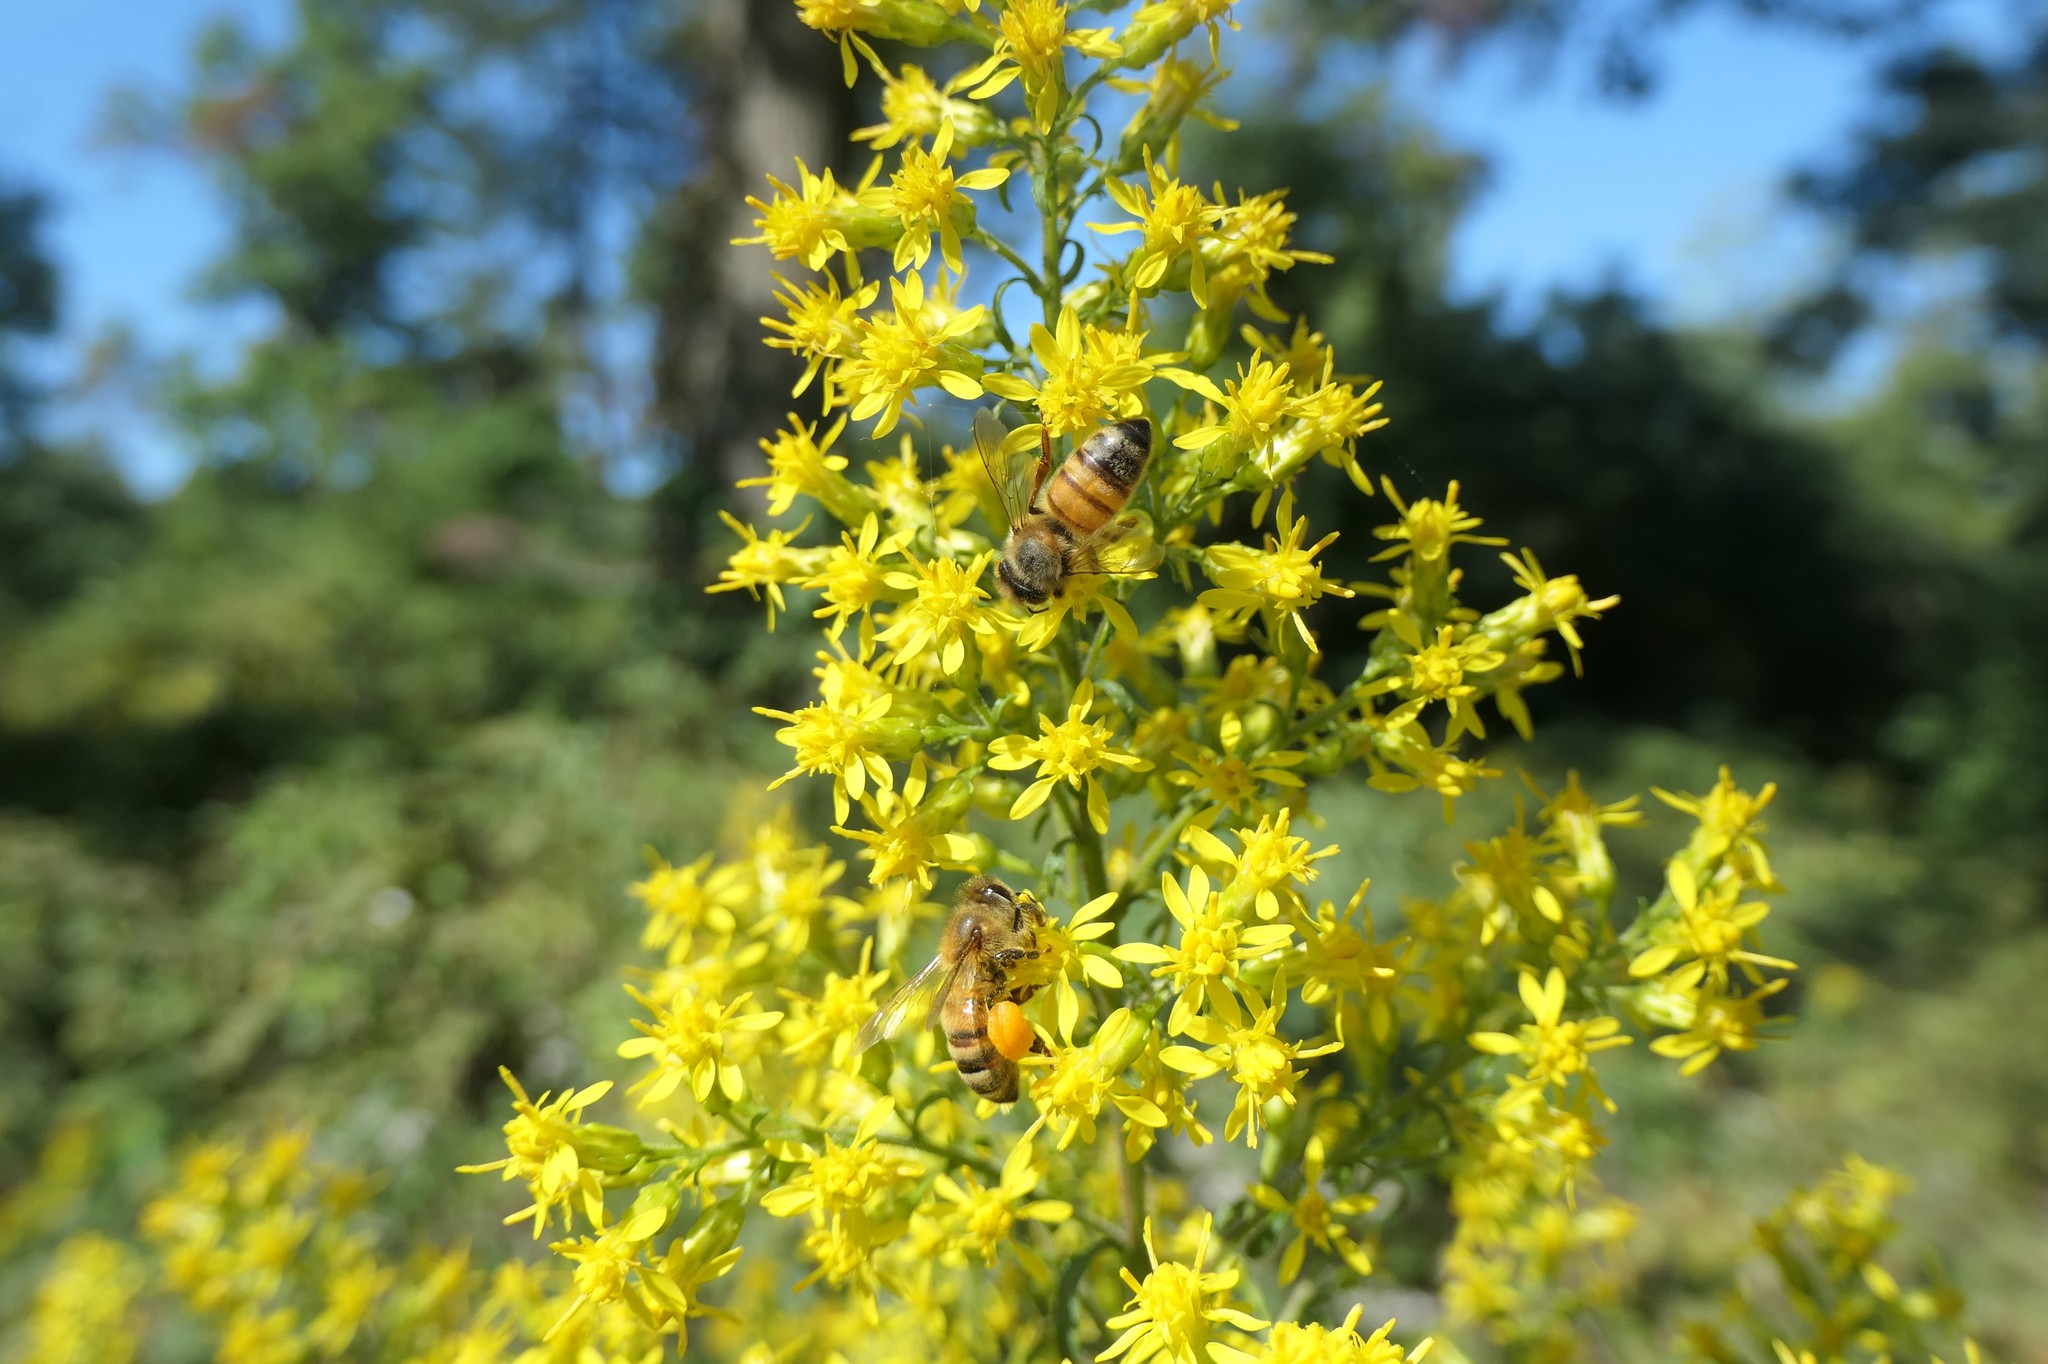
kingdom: Animalia
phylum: Arthropoda
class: Insecta
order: Hymenoptera
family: Apidae
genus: Apis
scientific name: Apis mellifera
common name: Honey bee
